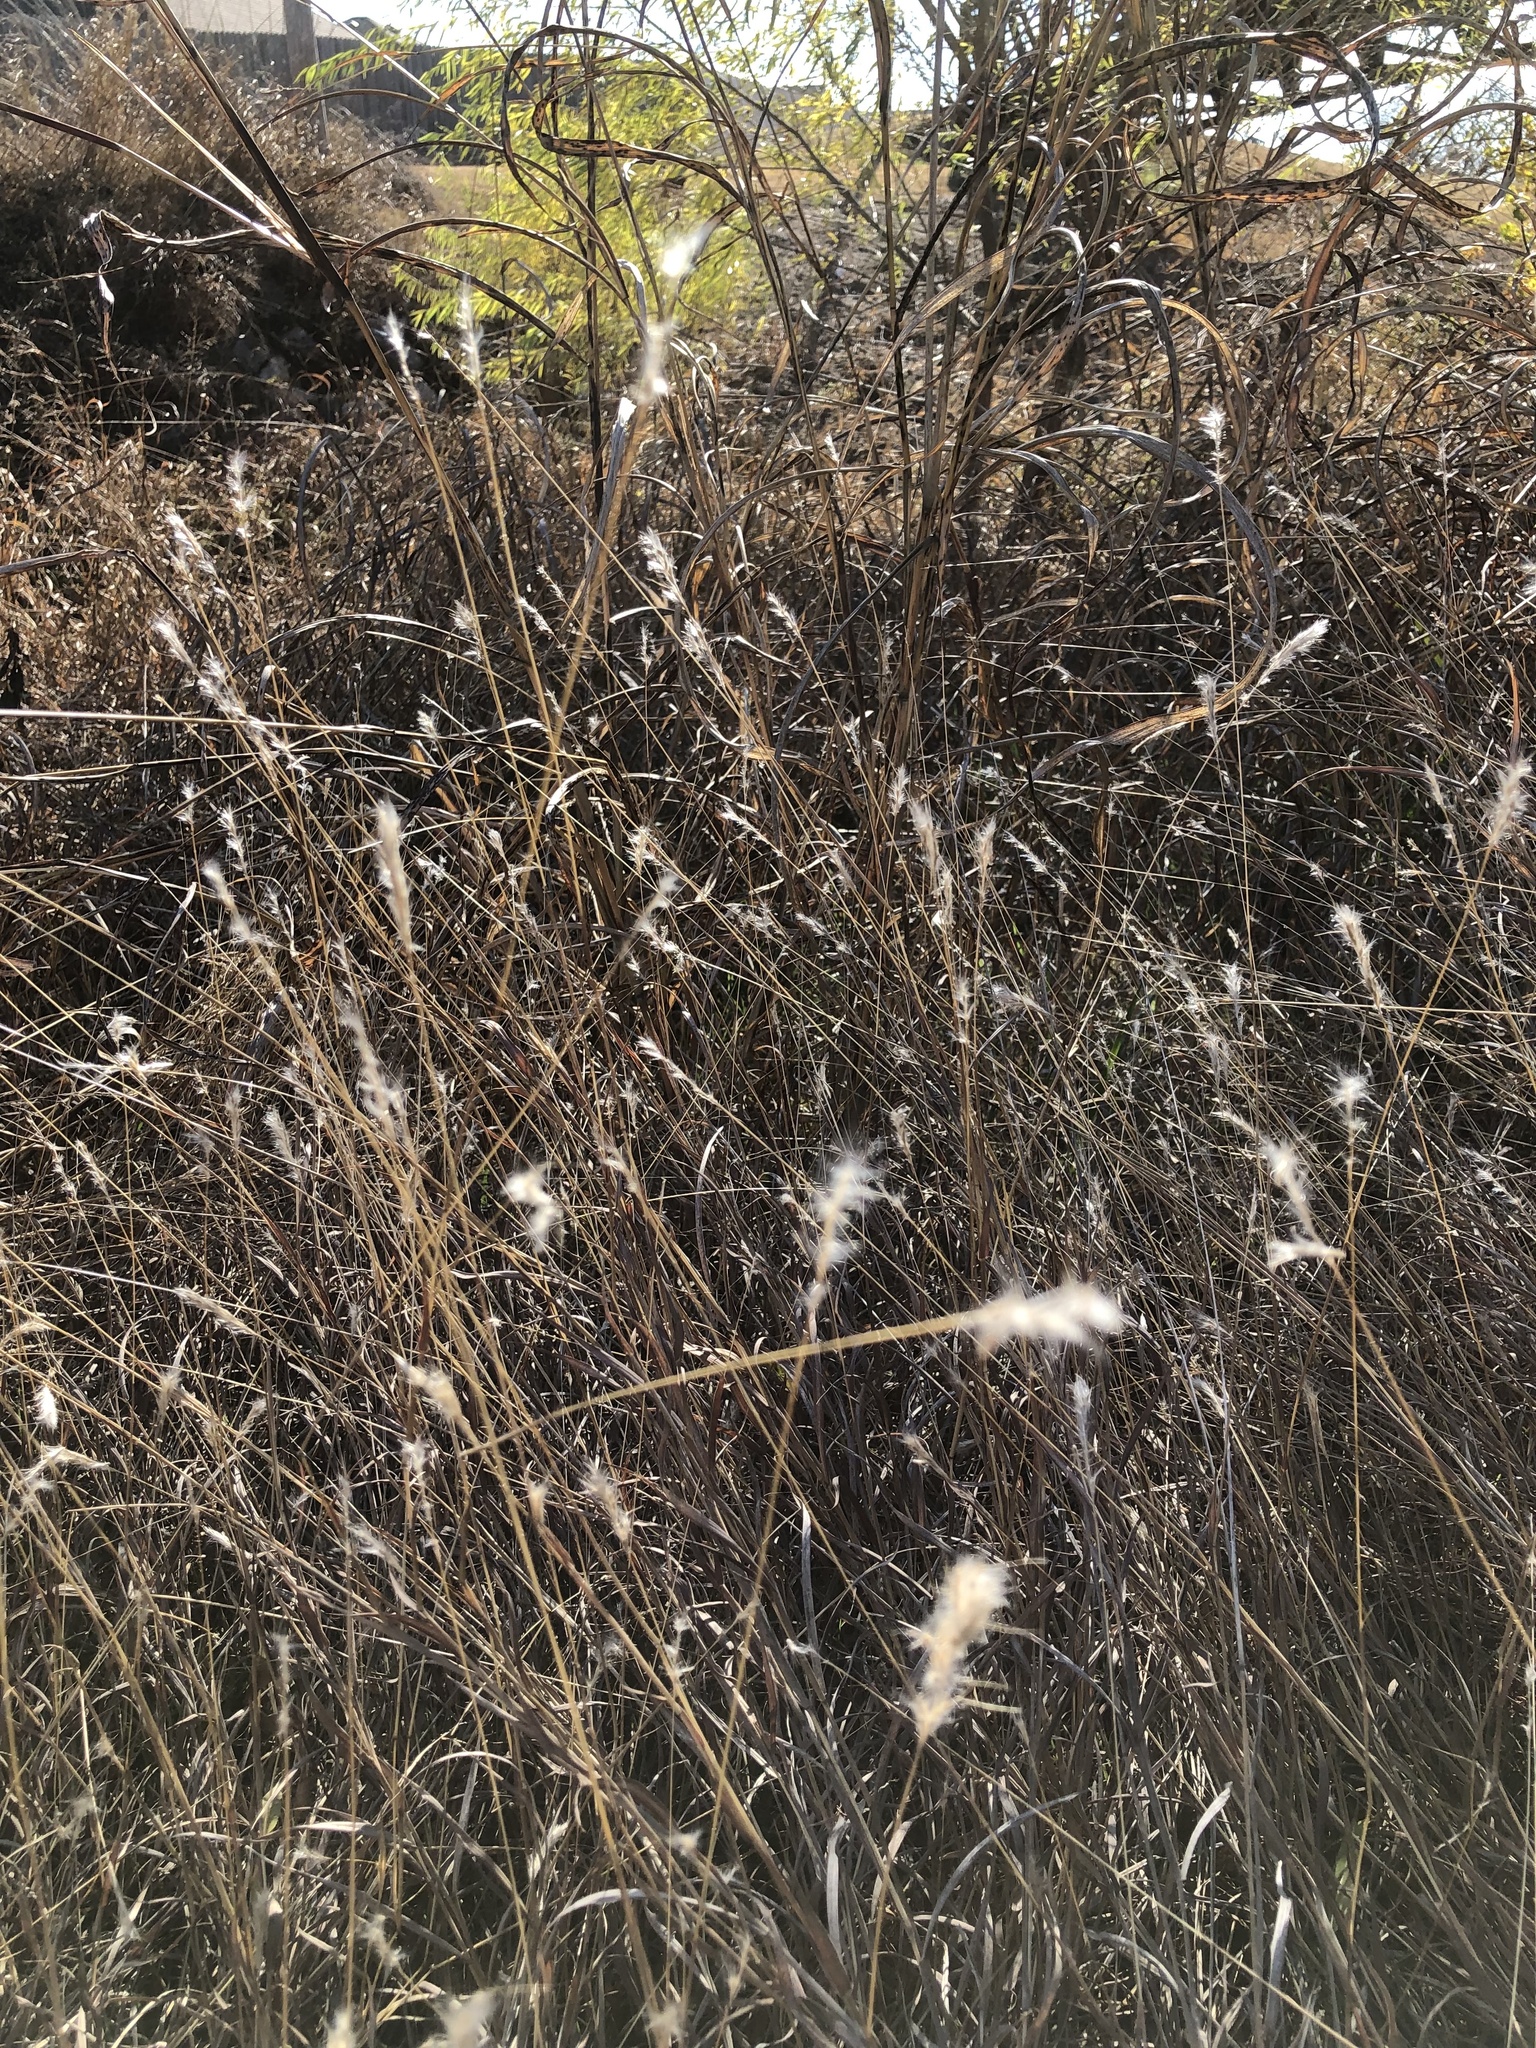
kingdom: Plantae
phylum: Tracheophyta
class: Liliopsida
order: Poales
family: Poaceae
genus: Bothriochloa
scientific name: Bothriochloa torreyana
